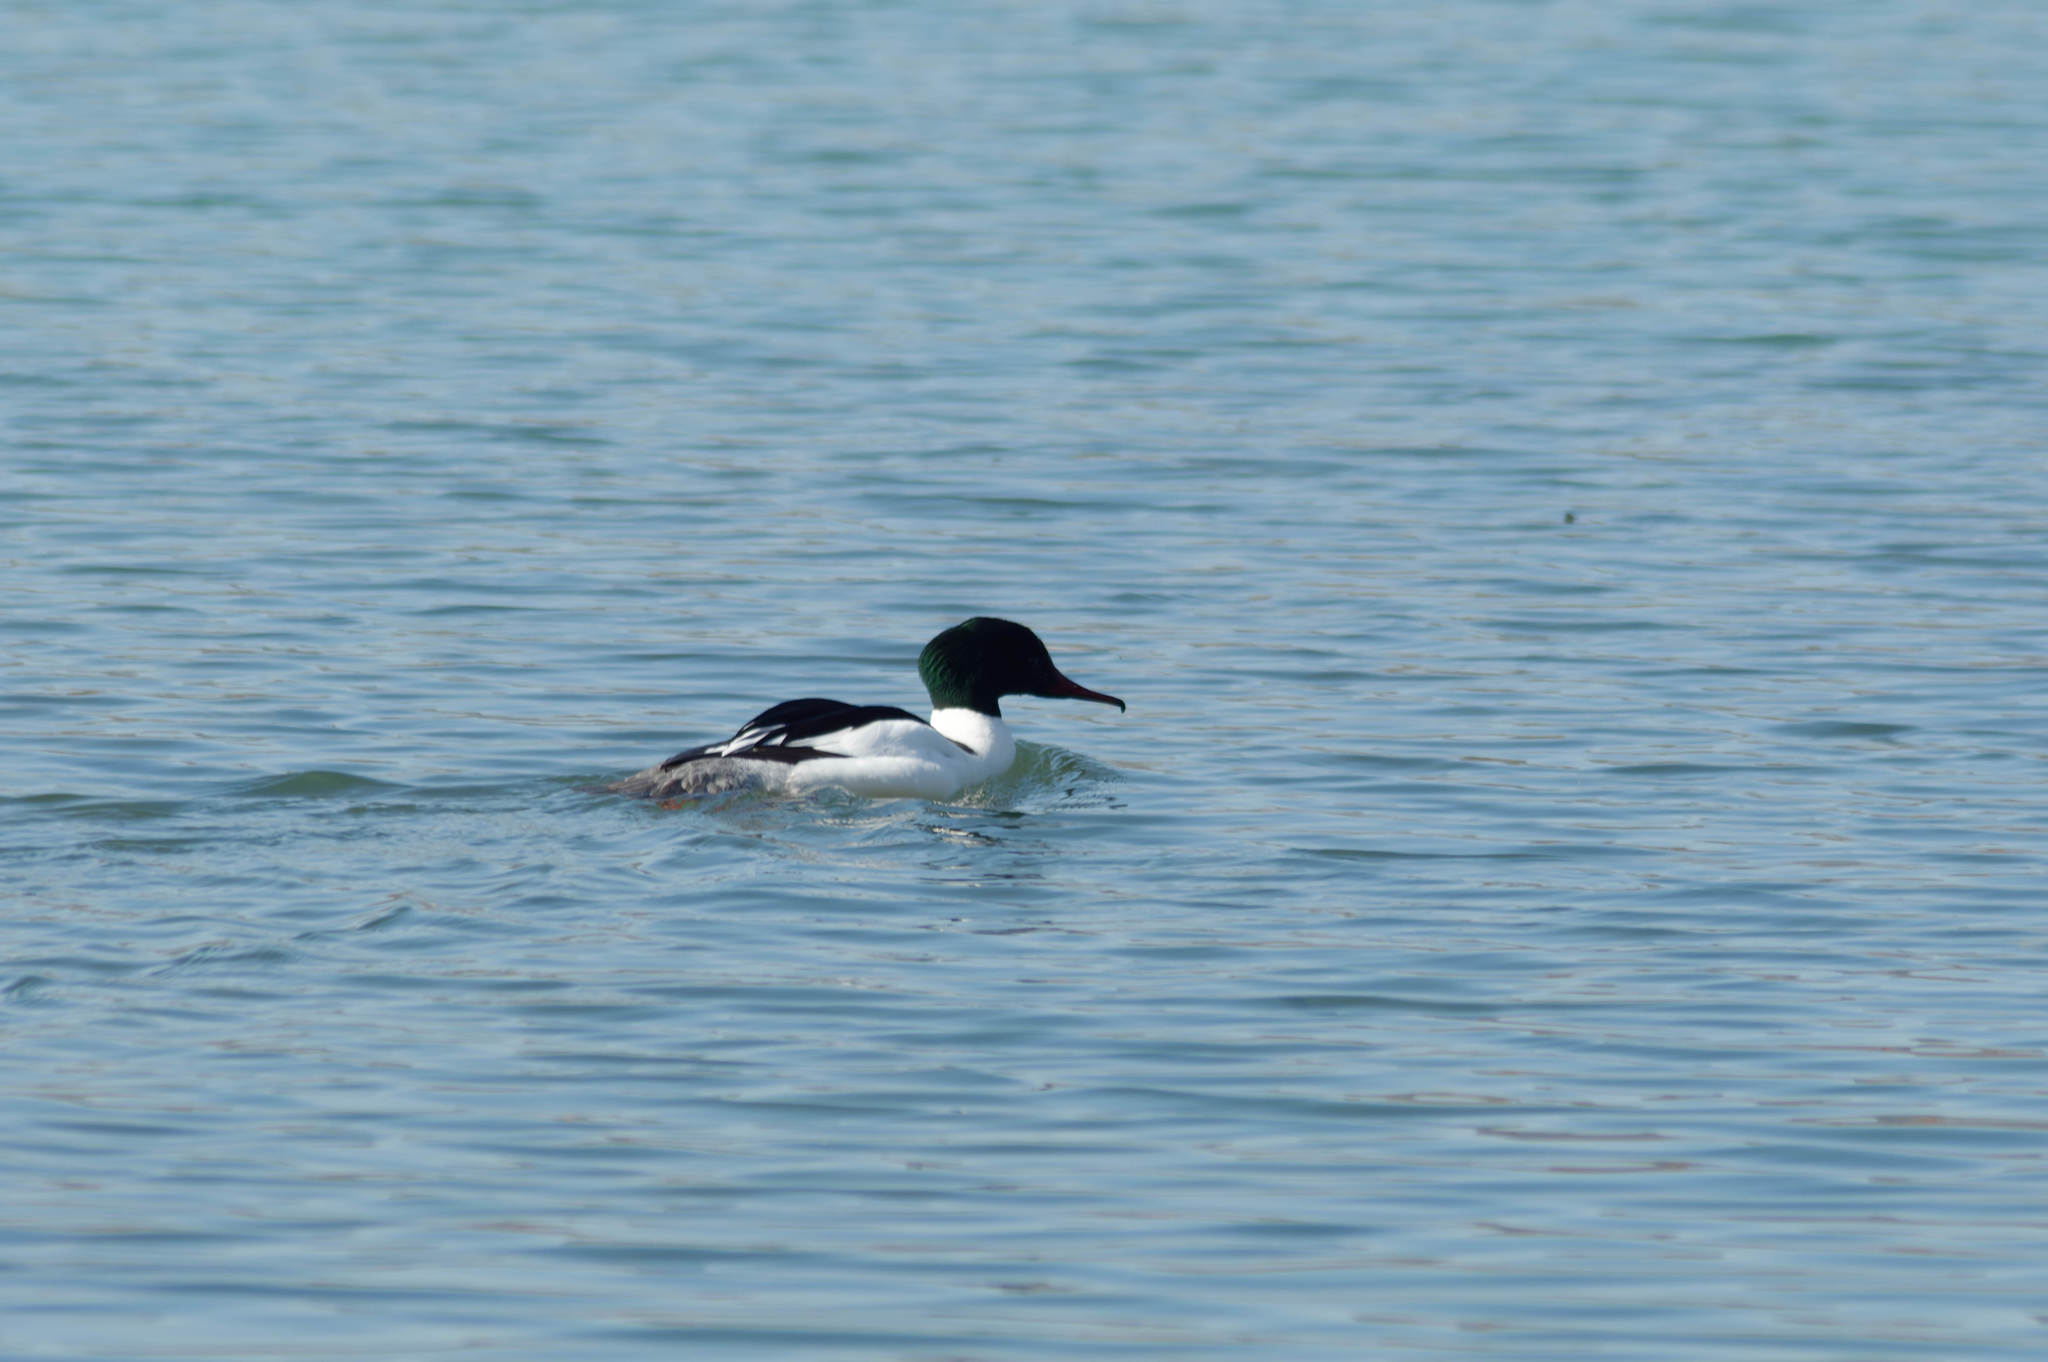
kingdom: Animalia
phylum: Chordata
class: Aves
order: Anseriformes
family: Anatidae
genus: Mergus
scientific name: Mergus merganser
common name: Common merganser
